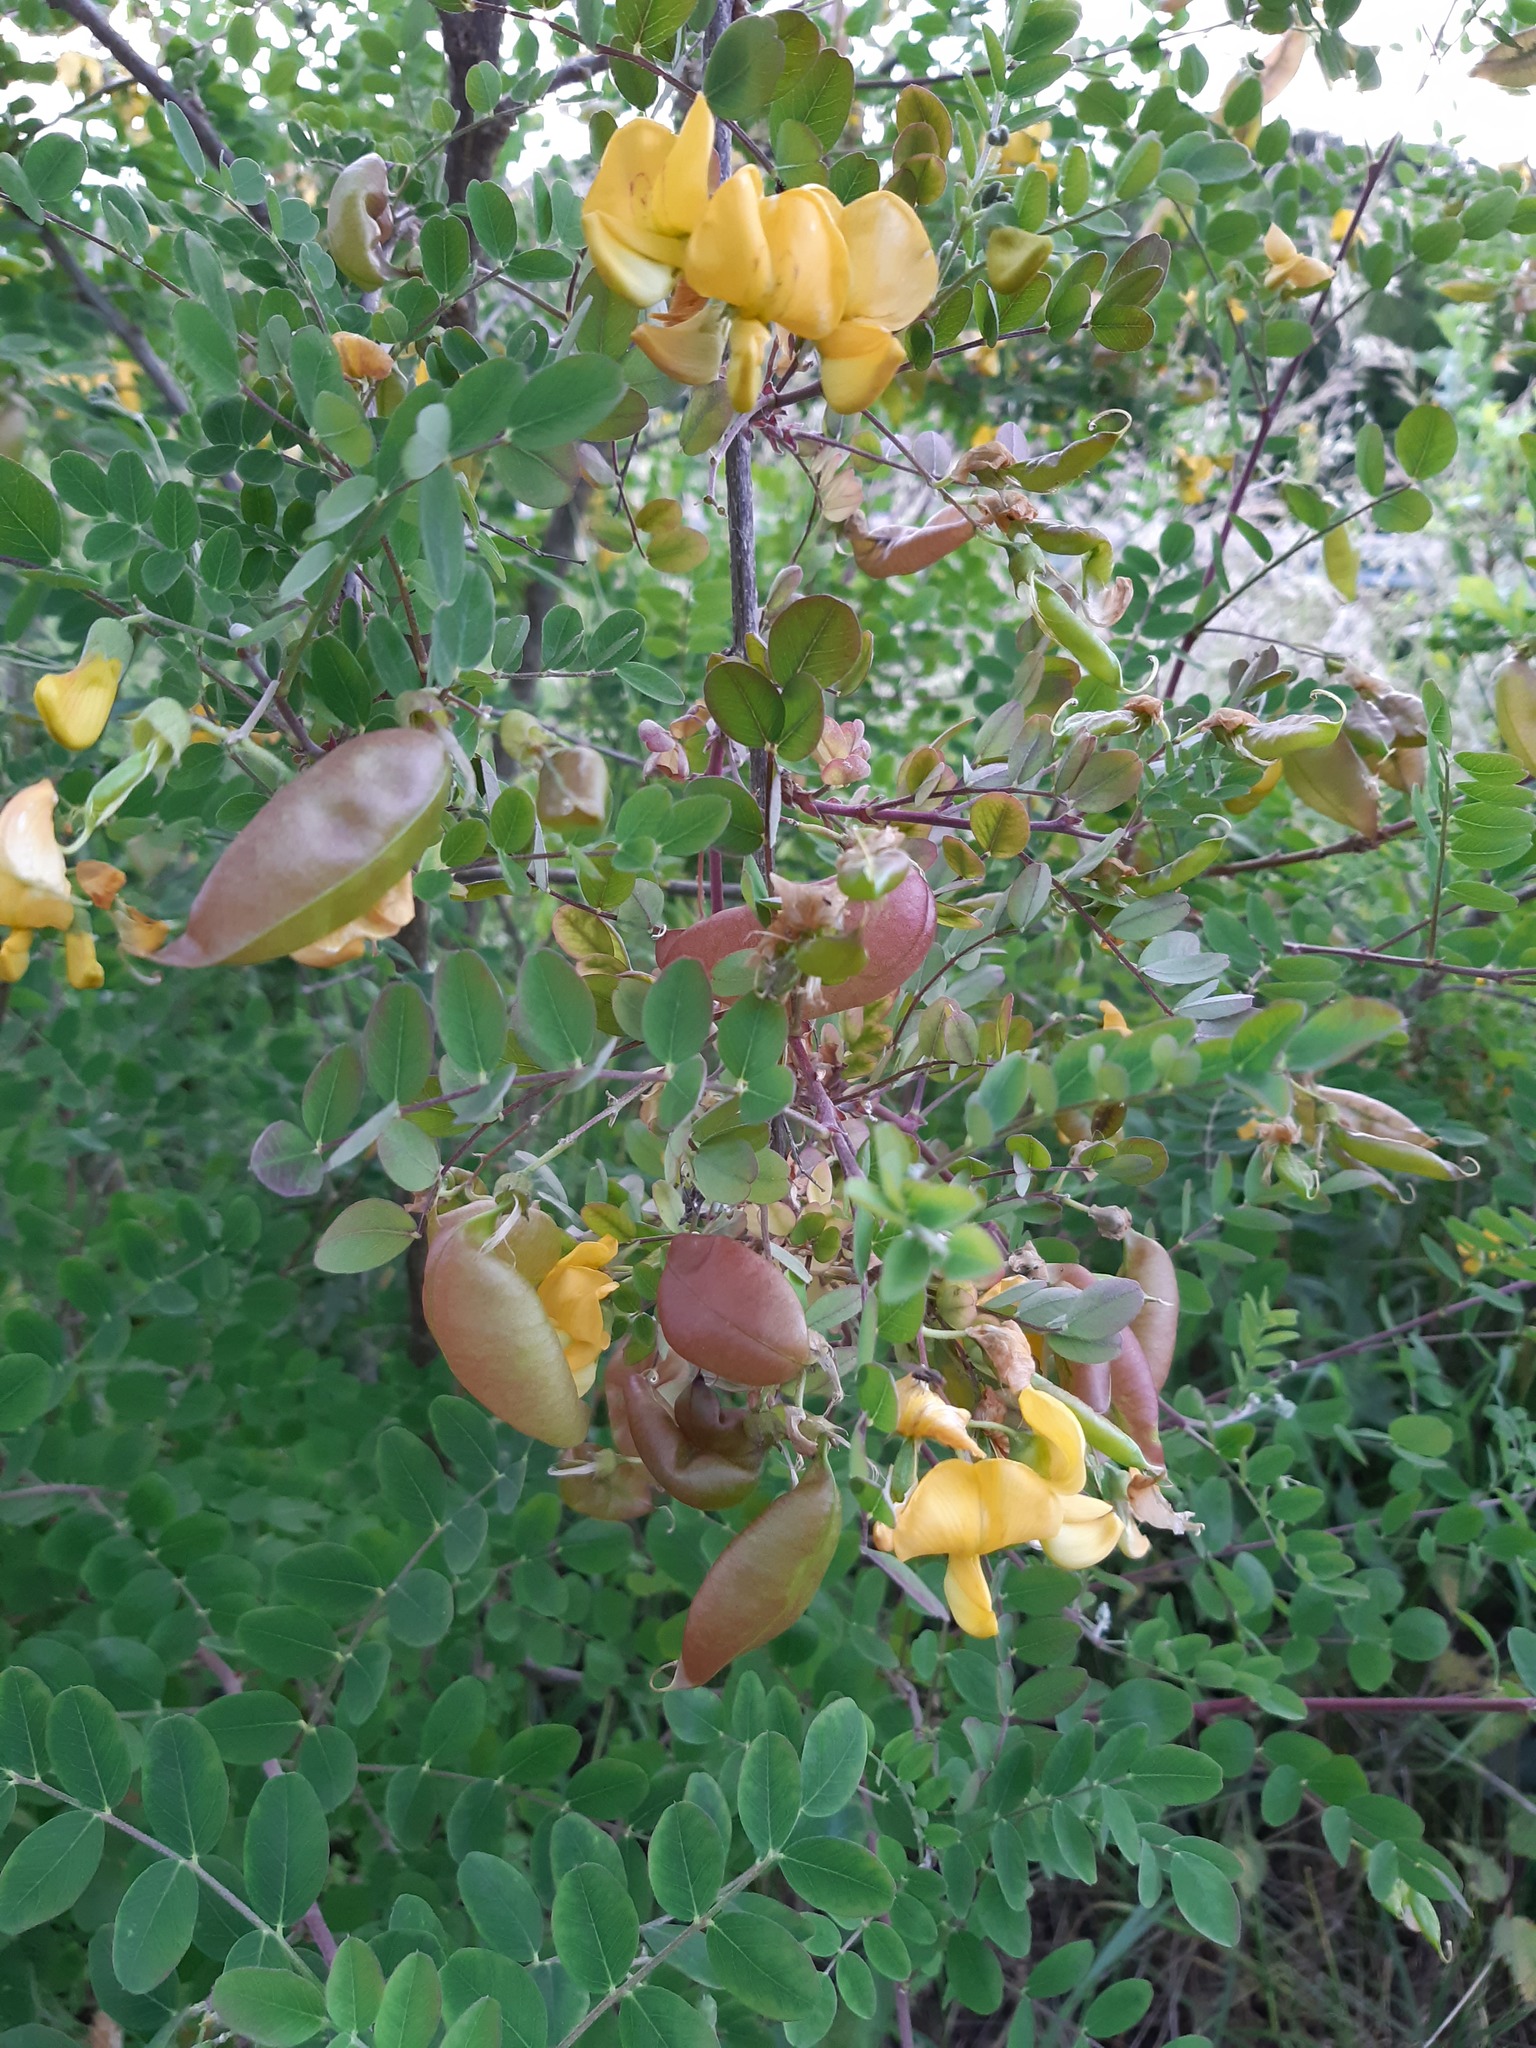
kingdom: Plantae
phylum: Tracheophyta
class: Magnoliopsida
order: Fabales
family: Fabaceae
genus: Colutea
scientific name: Colutea arborescens
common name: Bladder-senna
